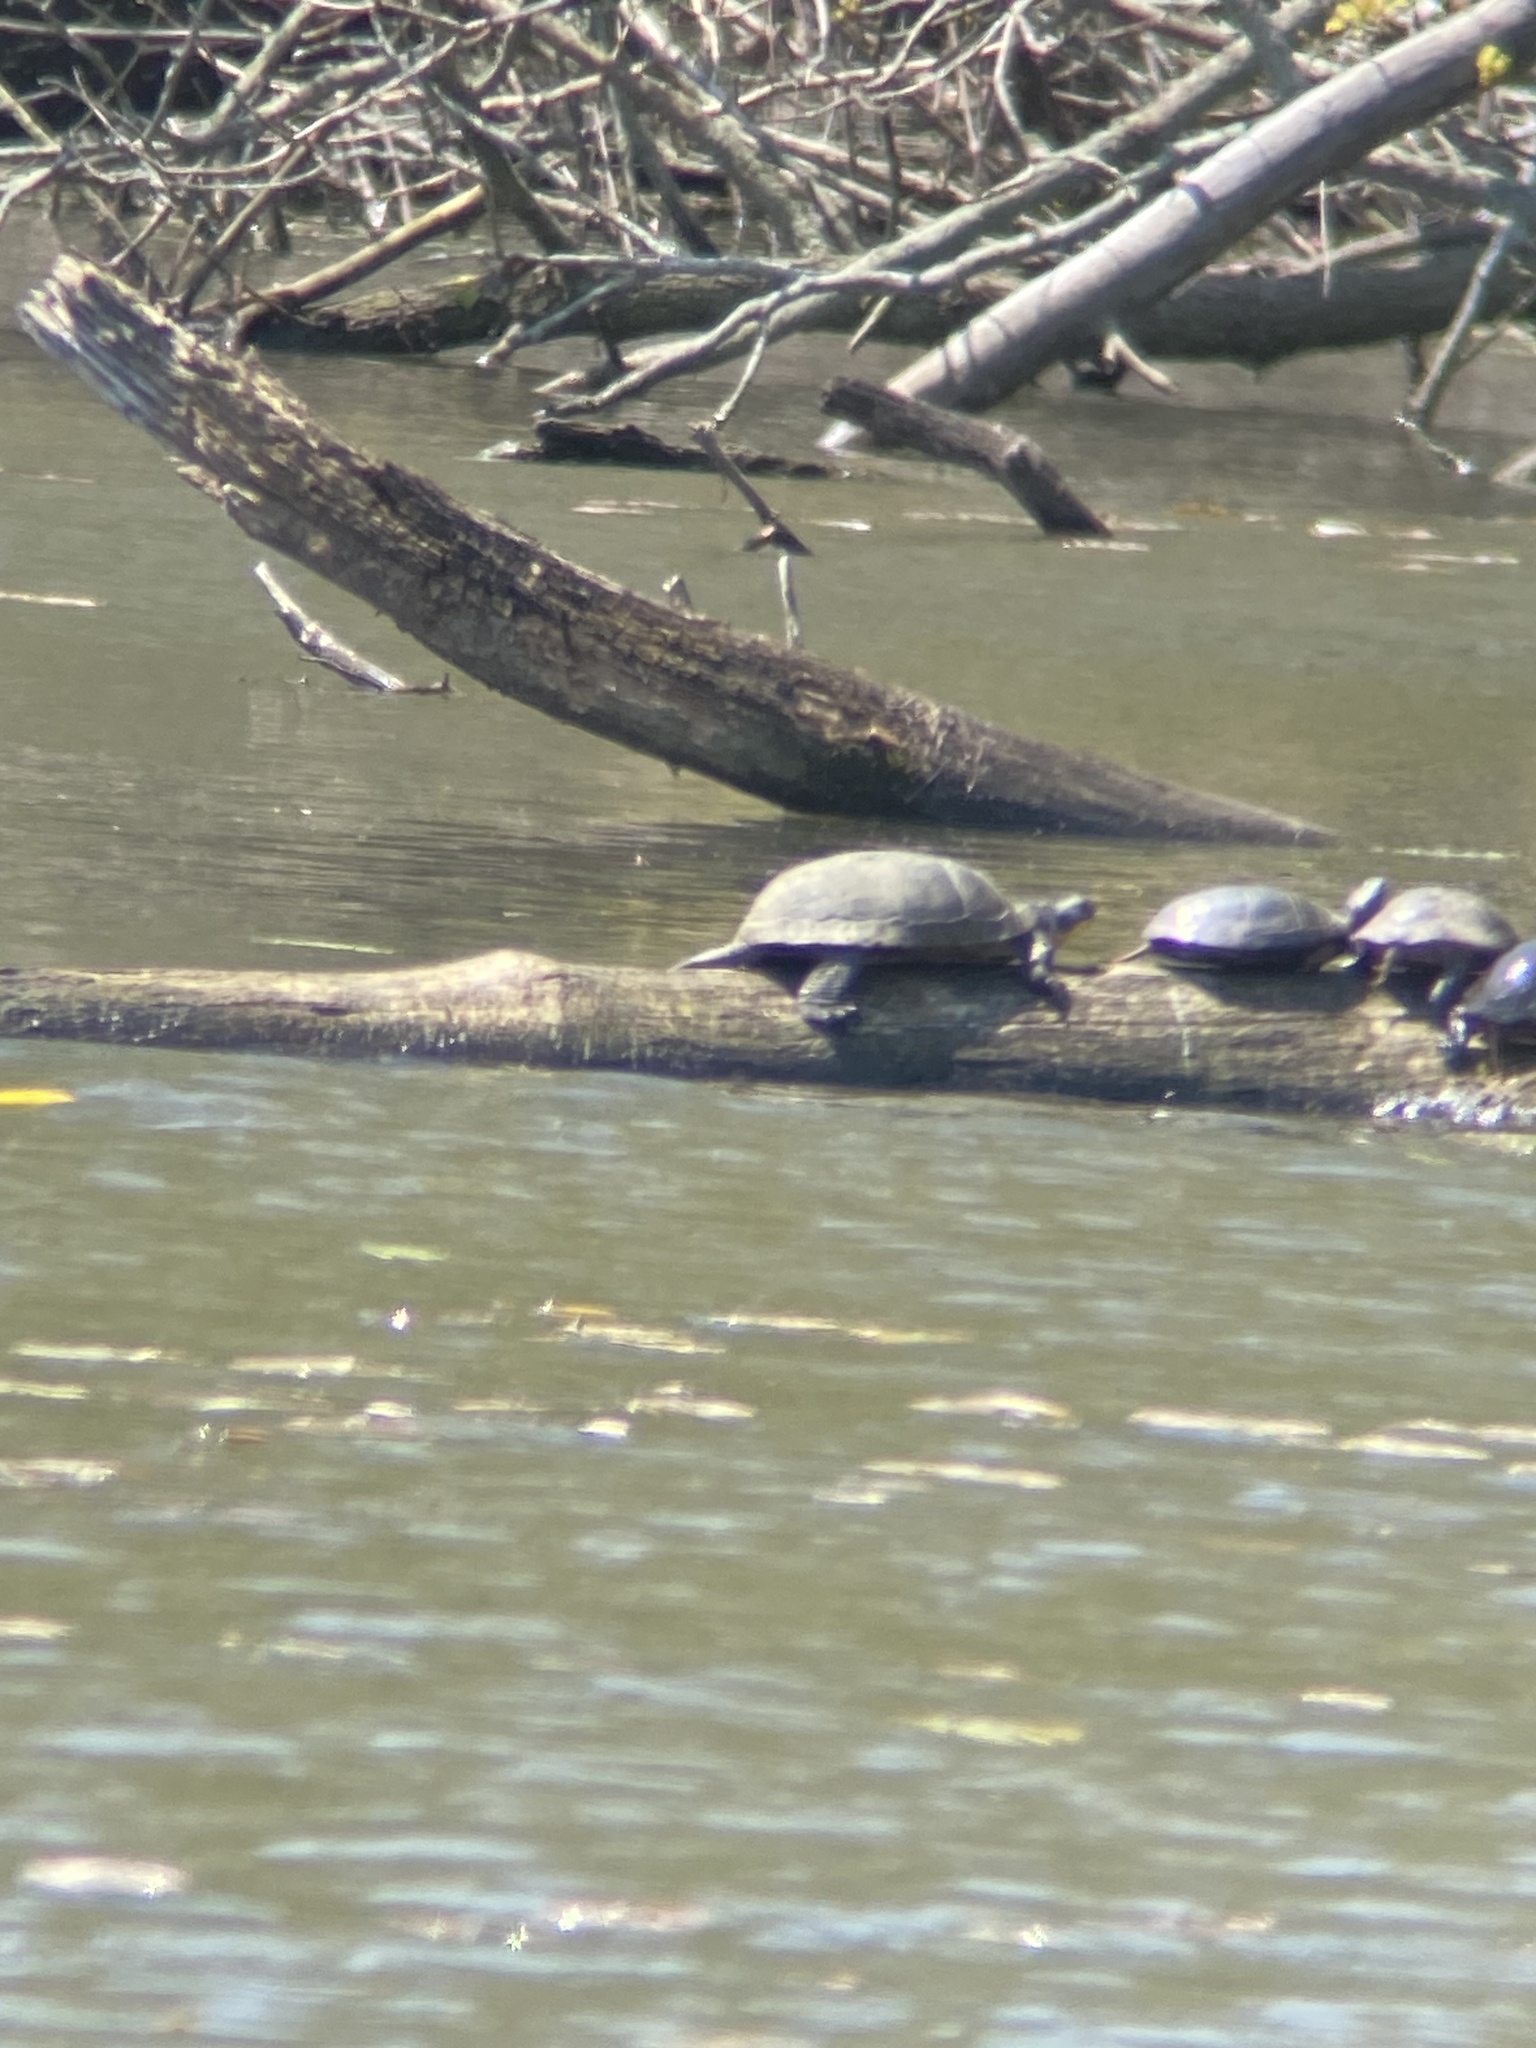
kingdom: Animalia
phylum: Chordata
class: Testudines
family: Emydidae
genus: Emys
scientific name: Emys blandingii
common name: Blanding's turtle
